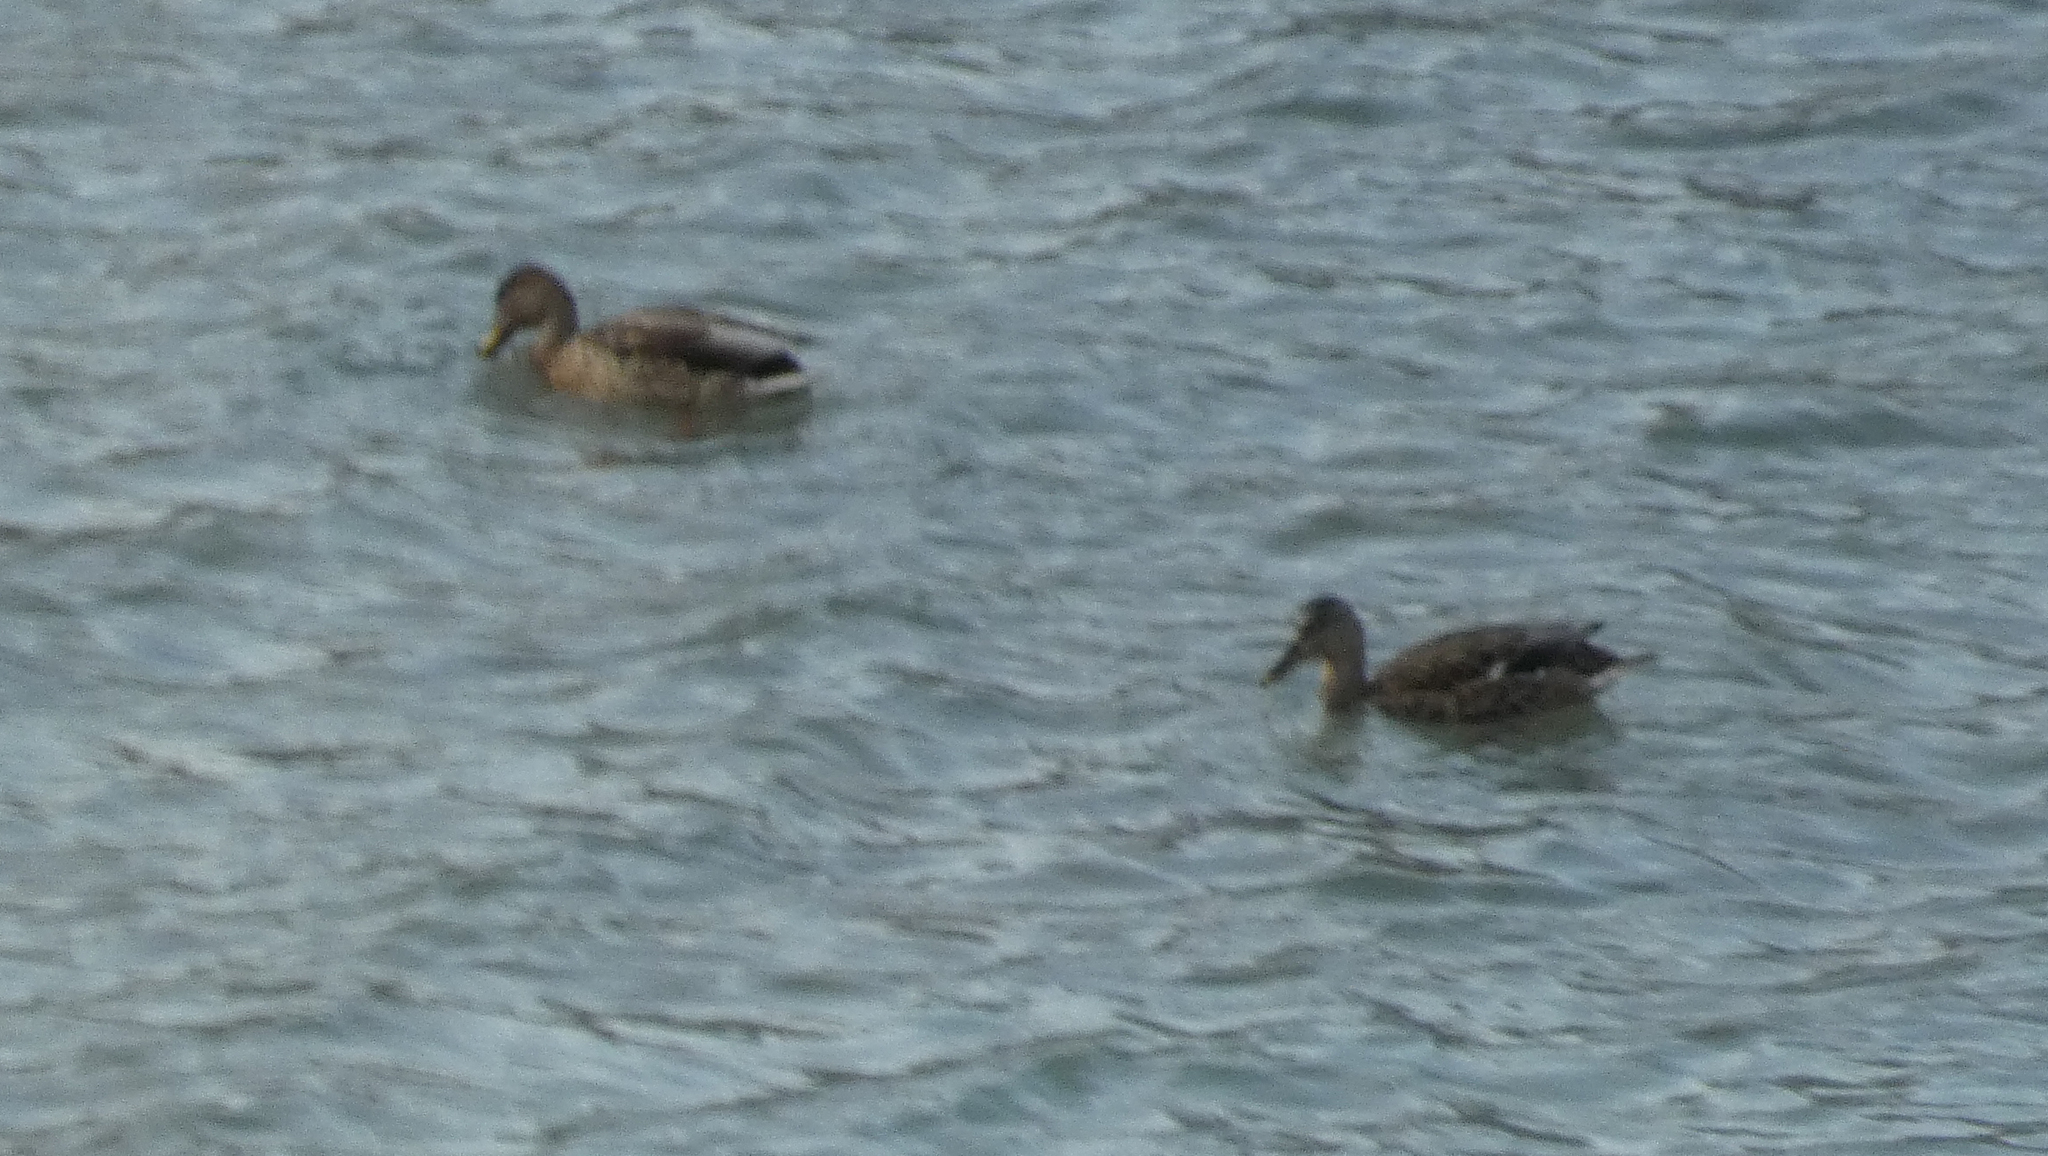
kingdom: Animalia
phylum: Chordata
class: Aves
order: Anseriformes
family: Anatidae
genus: Anas
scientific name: Anas platyrhynchos
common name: Mallard
